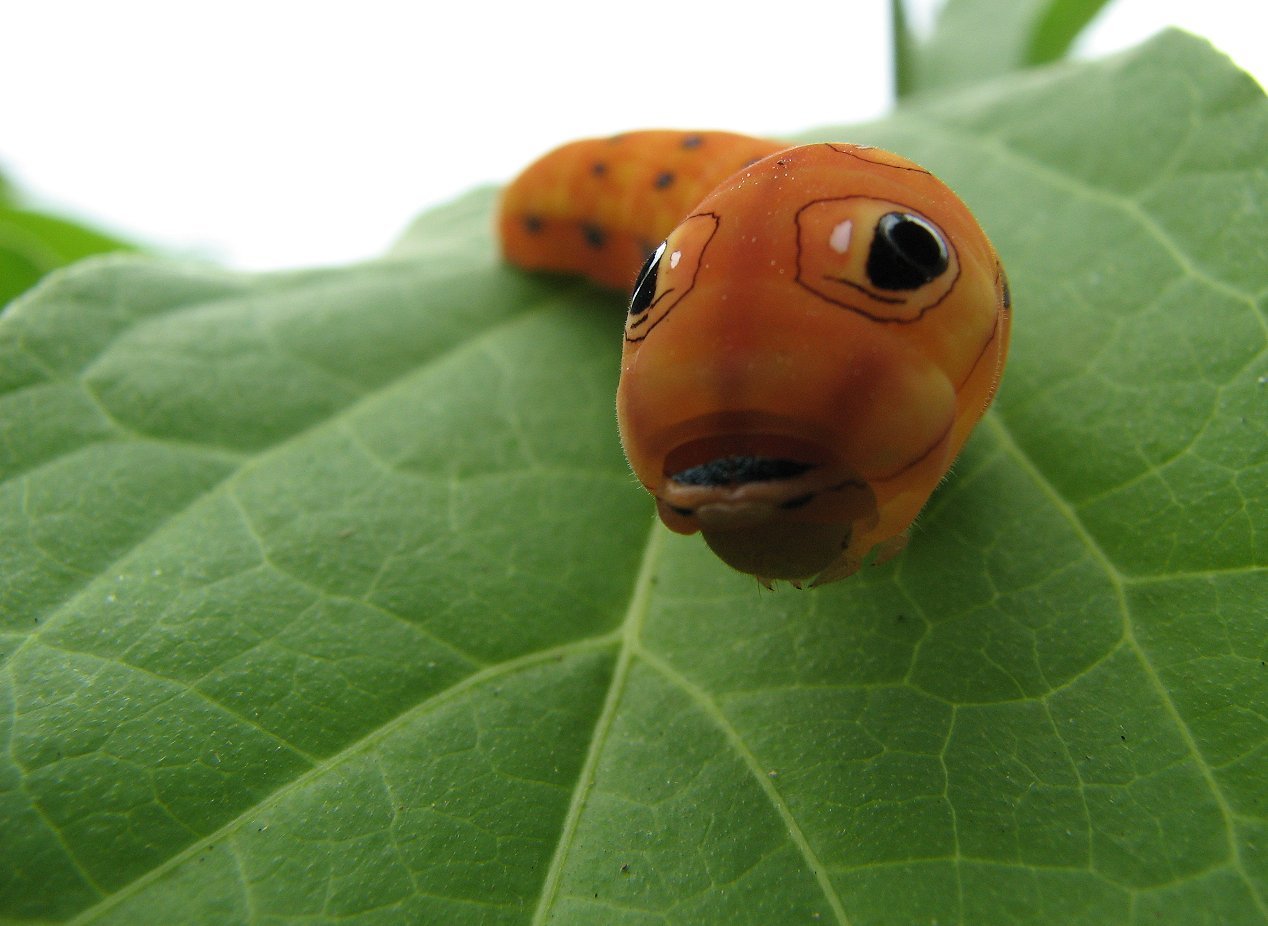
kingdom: Animalia
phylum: Arthropoda
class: Insecta
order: Lepidoptera
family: Papilionidae
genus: Papilio
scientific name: Papilio troilus
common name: Spicebush swallowtail
